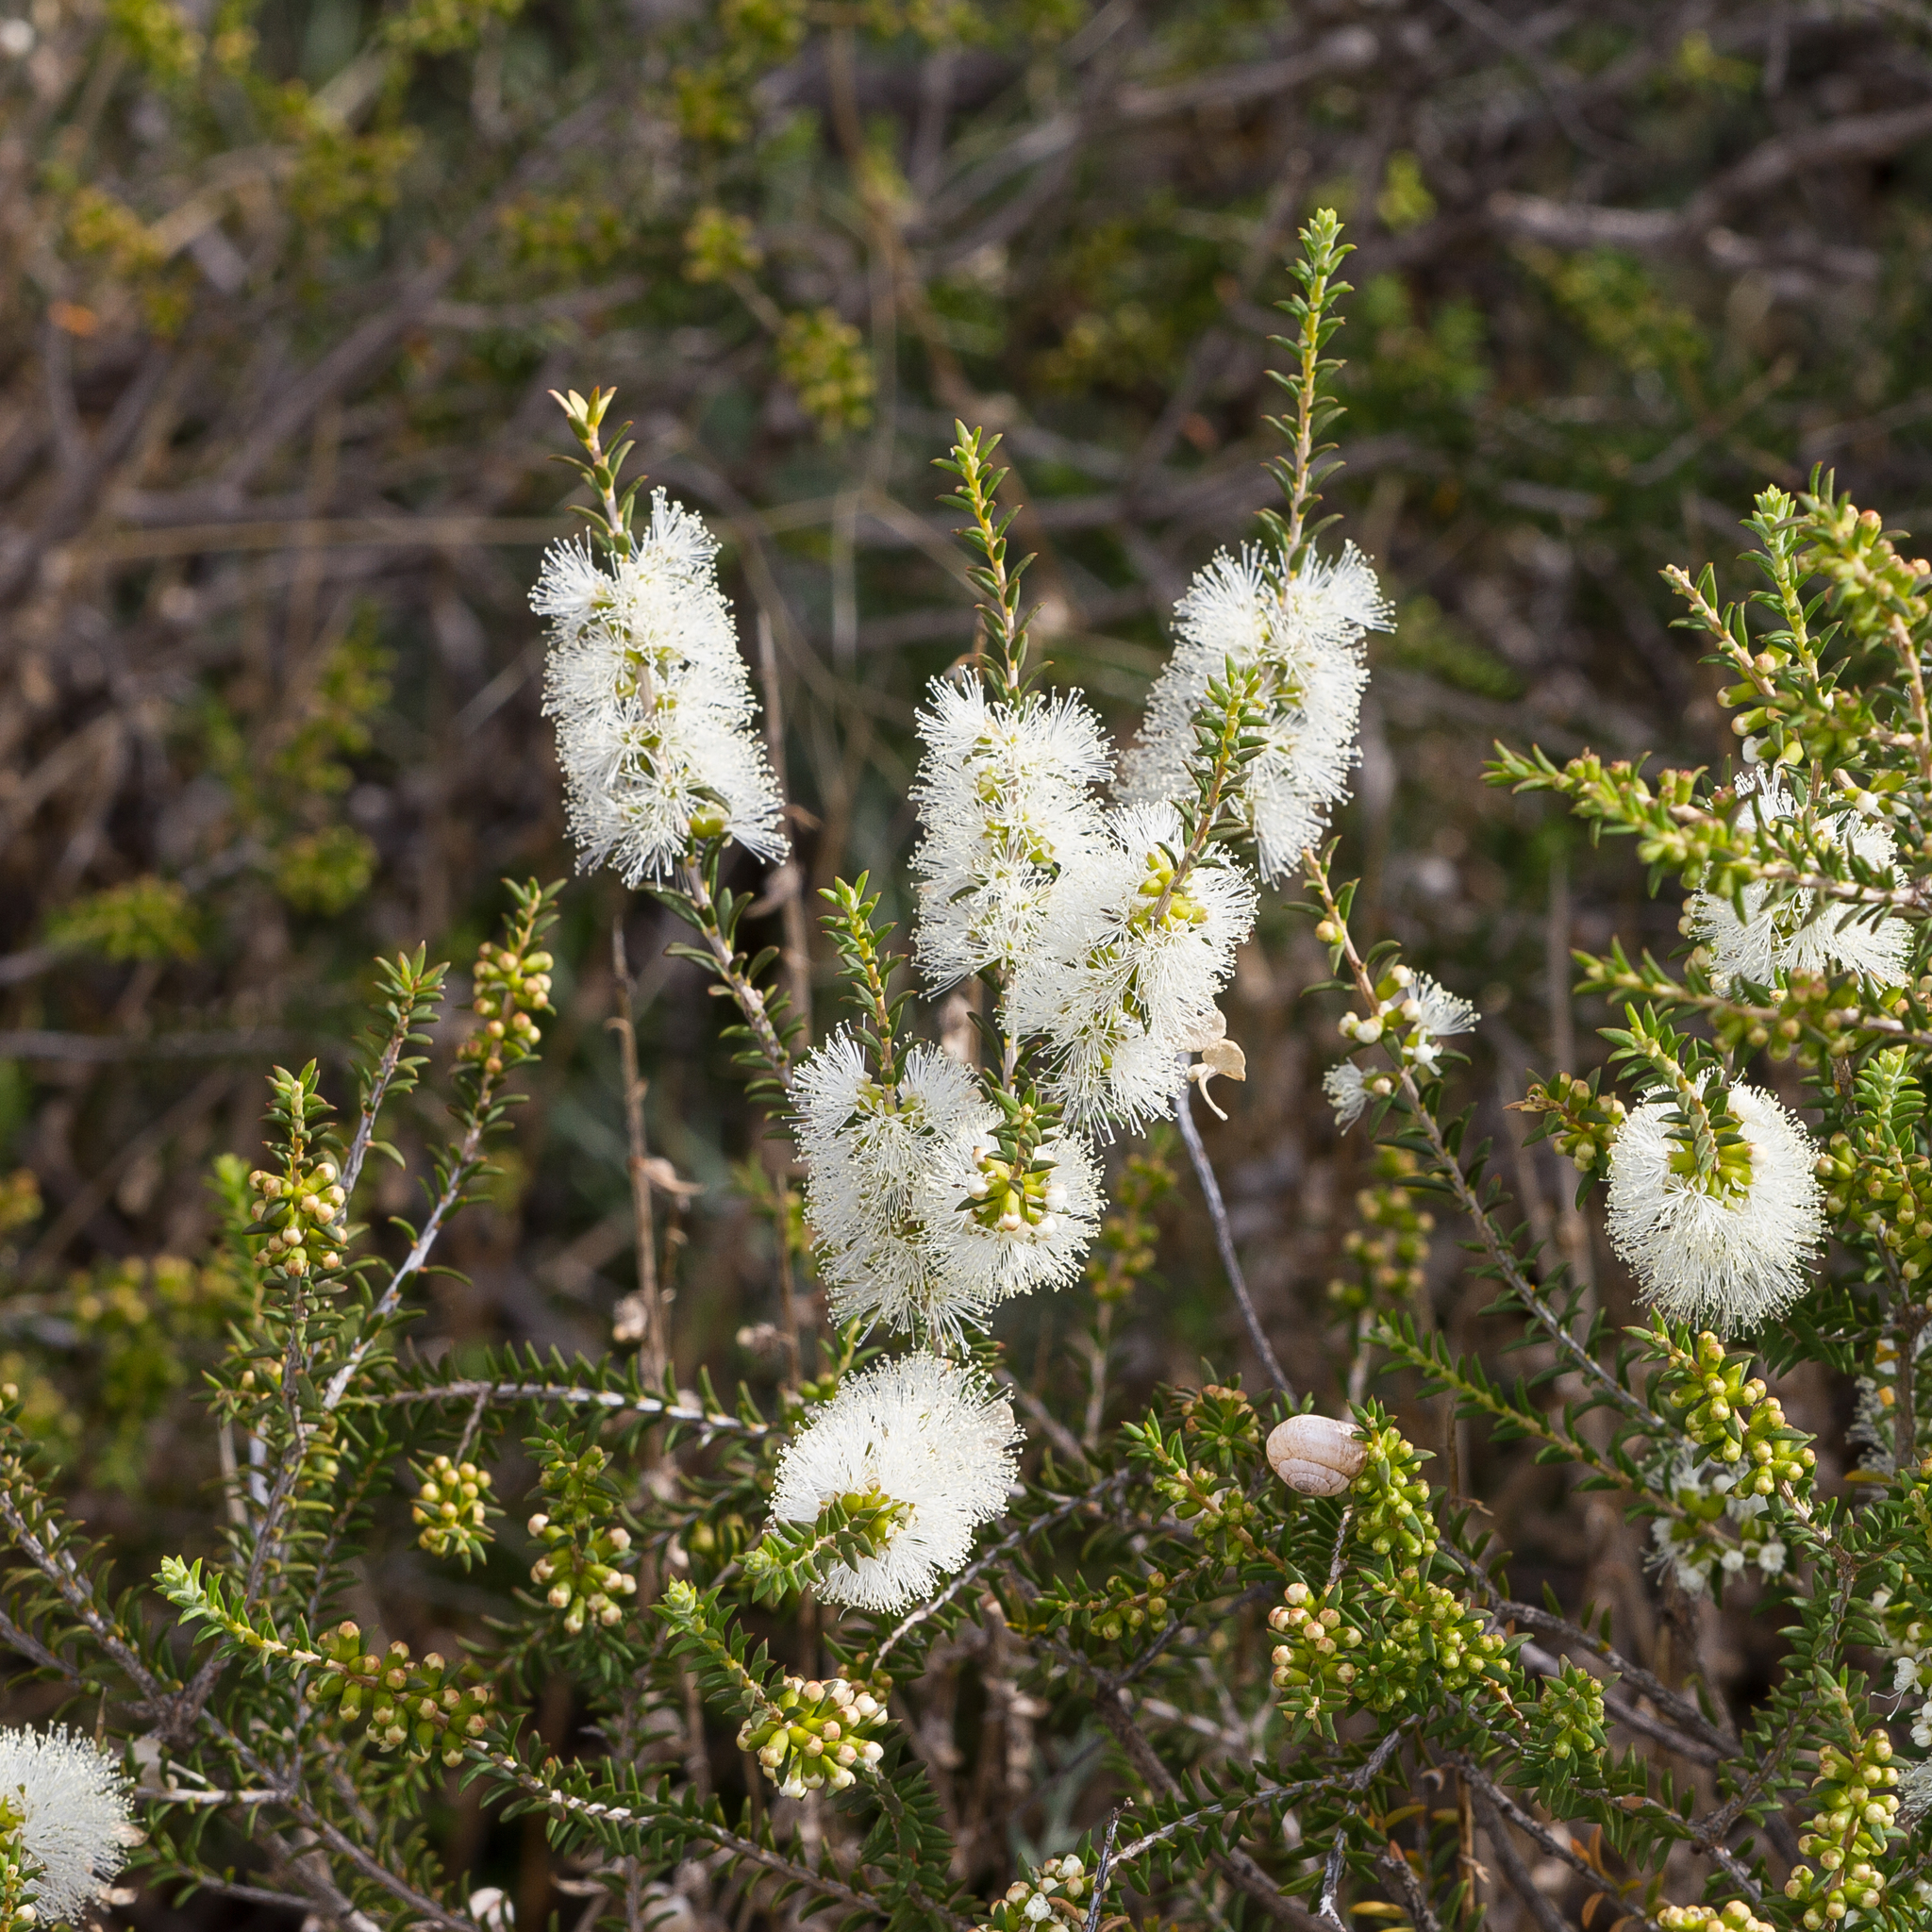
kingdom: Plantae
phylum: Tracheophyta
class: Magnoliopsida
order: Myrtales
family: Myrtaceae
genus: Melaleuca
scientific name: Melaleuca lanceolata
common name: Rottnest island teatree
